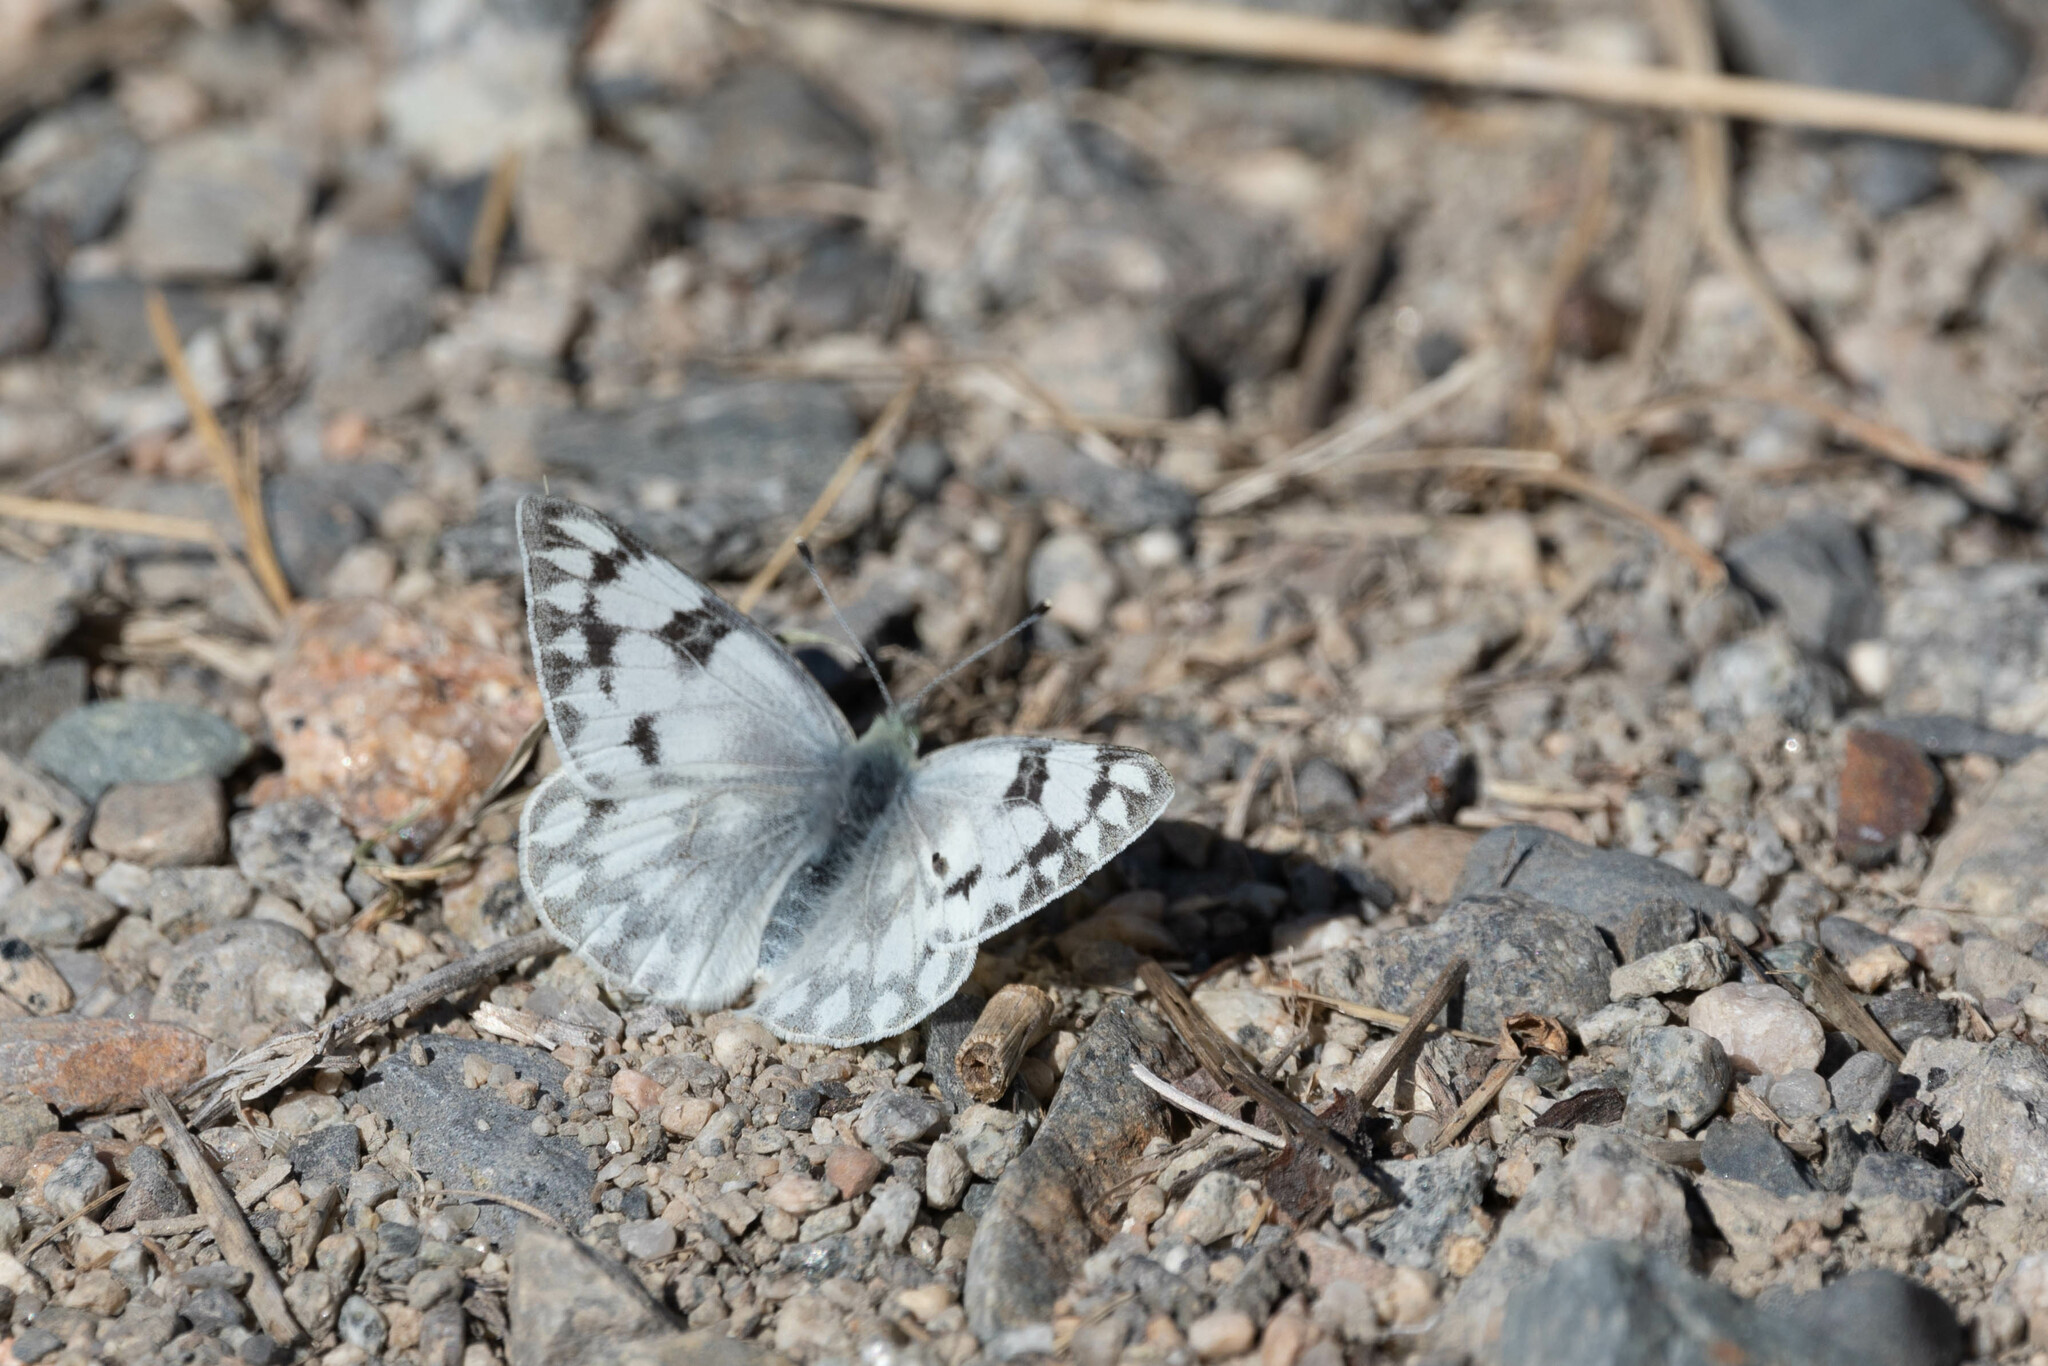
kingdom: Animalia
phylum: Arthropoda
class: Insecta
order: Lepidoptera
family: Pieridae
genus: Pontia
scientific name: Pontia occidentalis
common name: Western white
